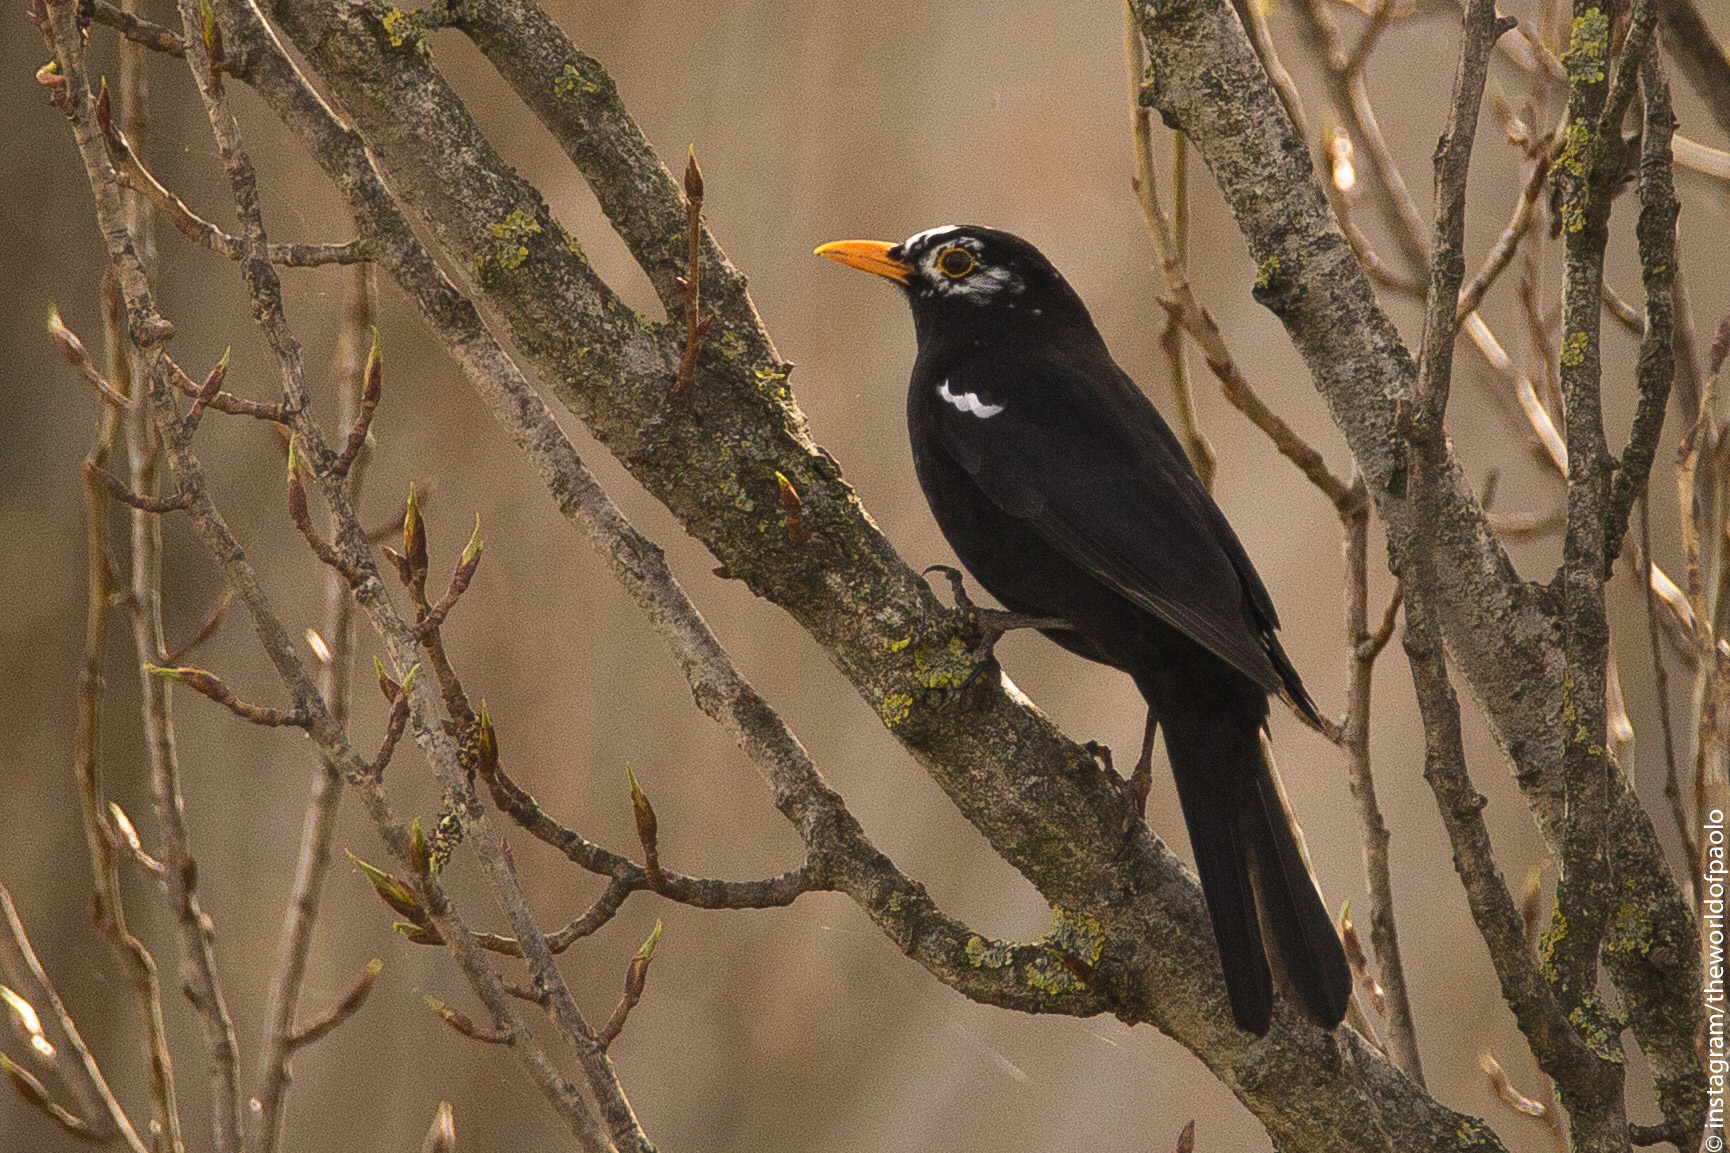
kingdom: Animalia
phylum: Chordata
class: Aves
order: Passeriformes
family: Turdidae
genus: Turdus
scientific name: Turdus merula
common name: Common blackbird
